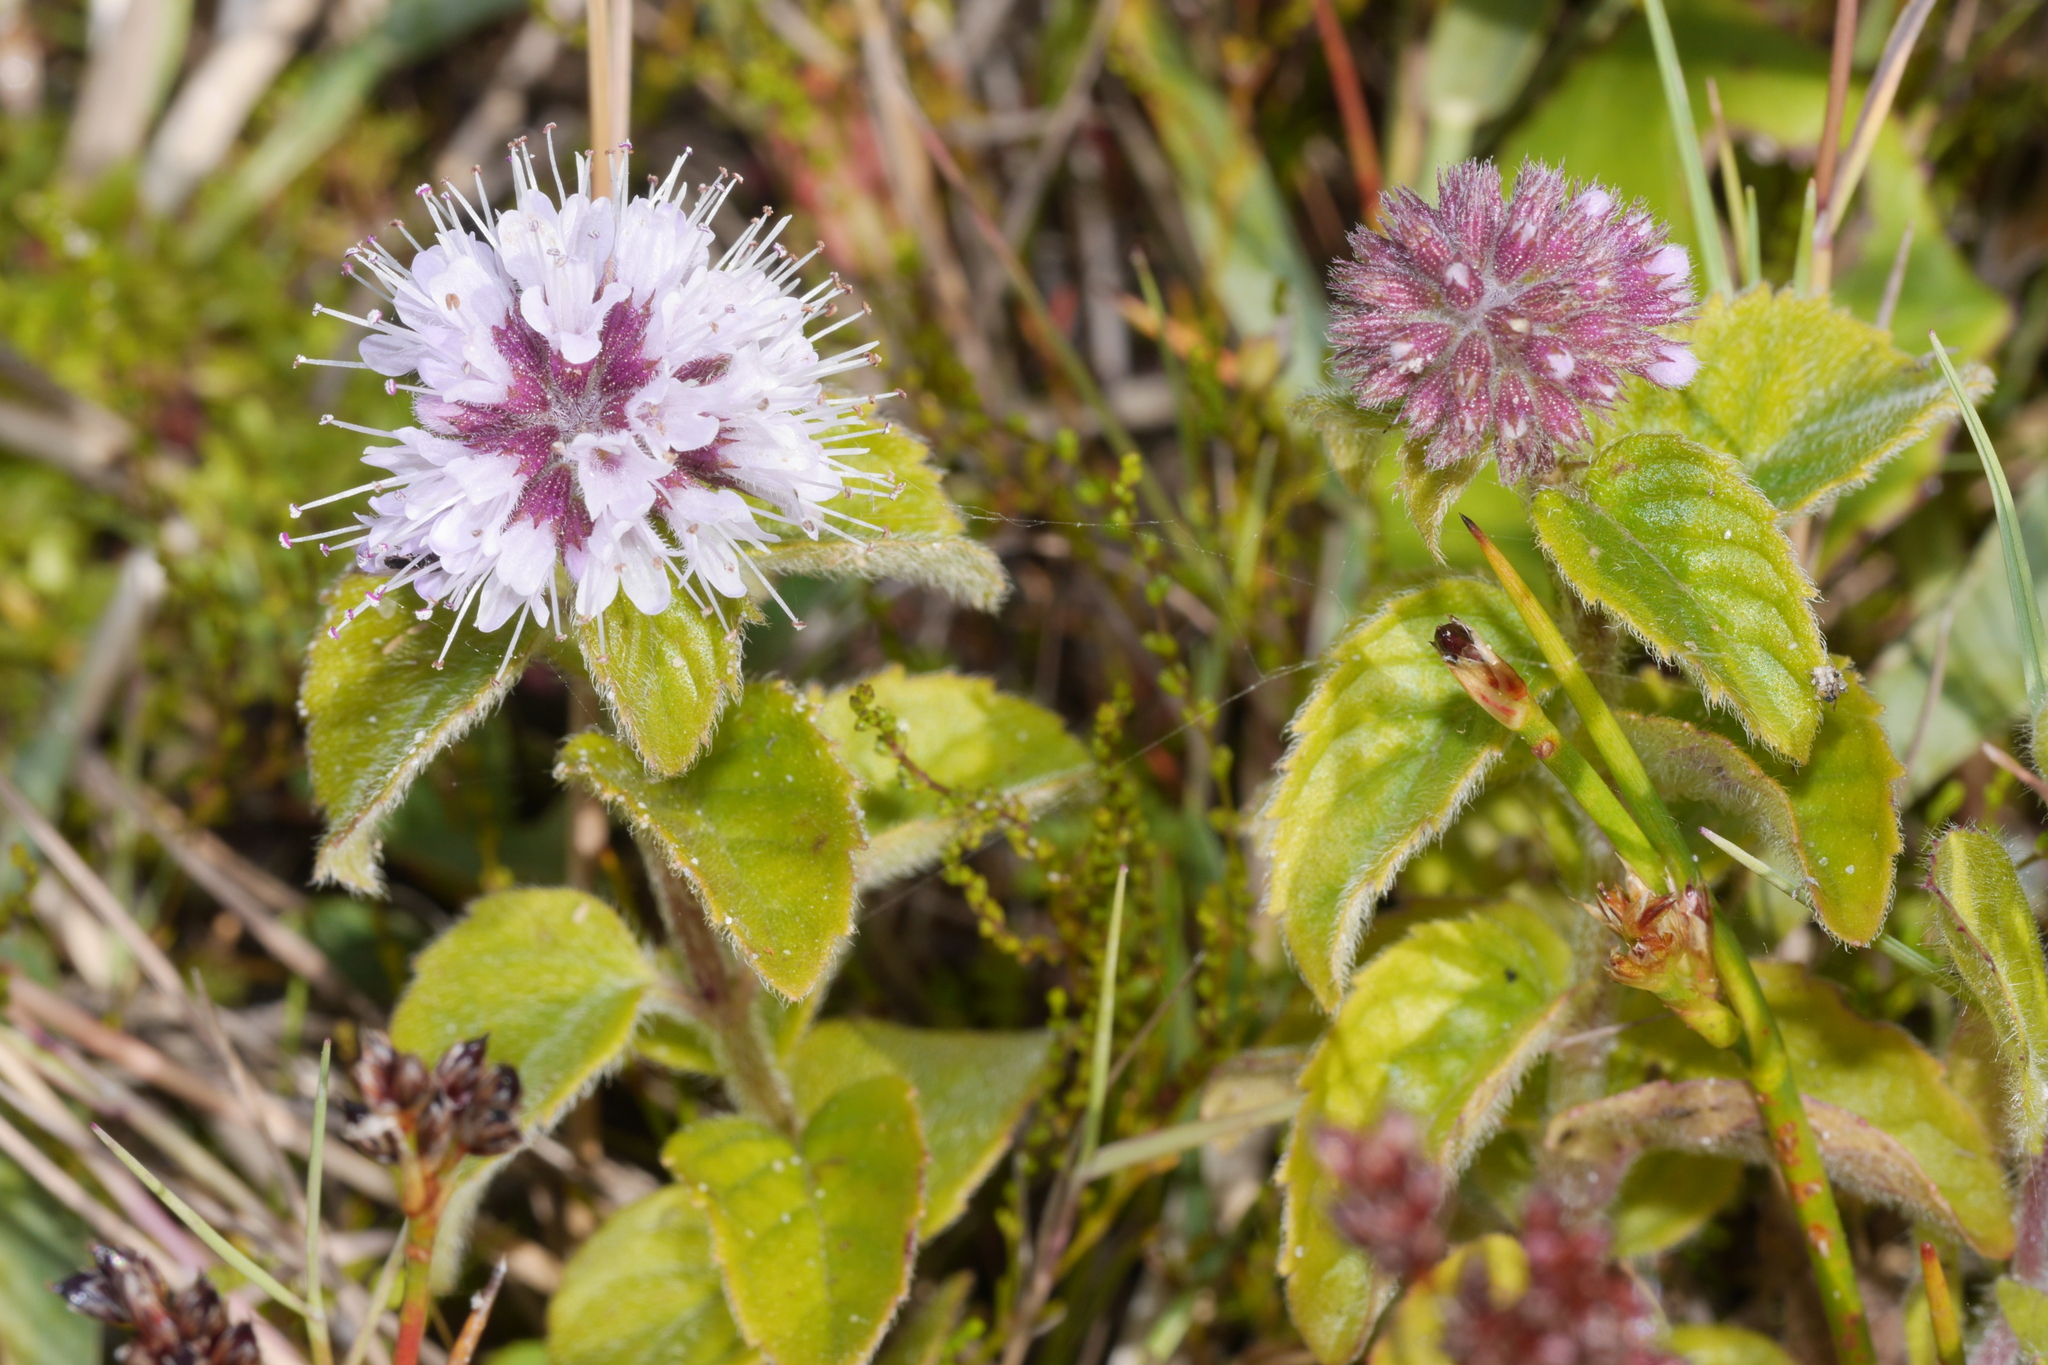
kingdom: Plantae
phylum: Tracheophyta
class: Magnoliopsida
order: Lamiales
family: Lamiaceae
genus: Mentha
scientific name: Mentha aquatica
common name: Water mint
